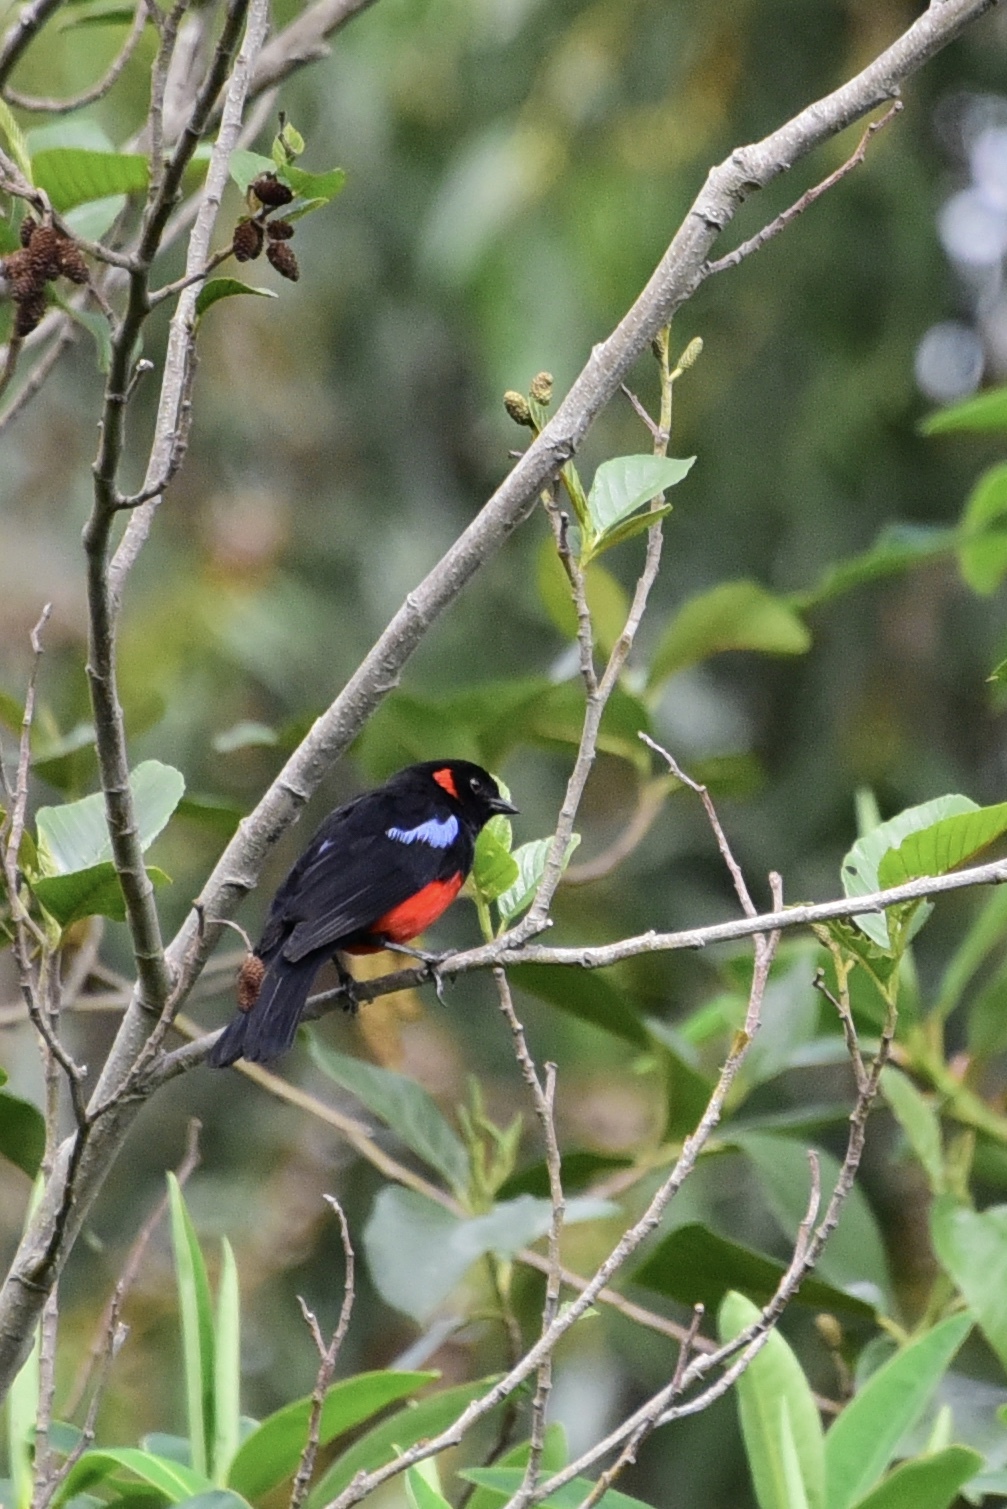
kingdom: Animalia
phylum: Chordata
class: Aves
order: Passeriformes
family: Thraupidae
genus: Anisognathus
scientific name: Anisognathus igniventris
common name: Scarlet-bellied mountain tanager
